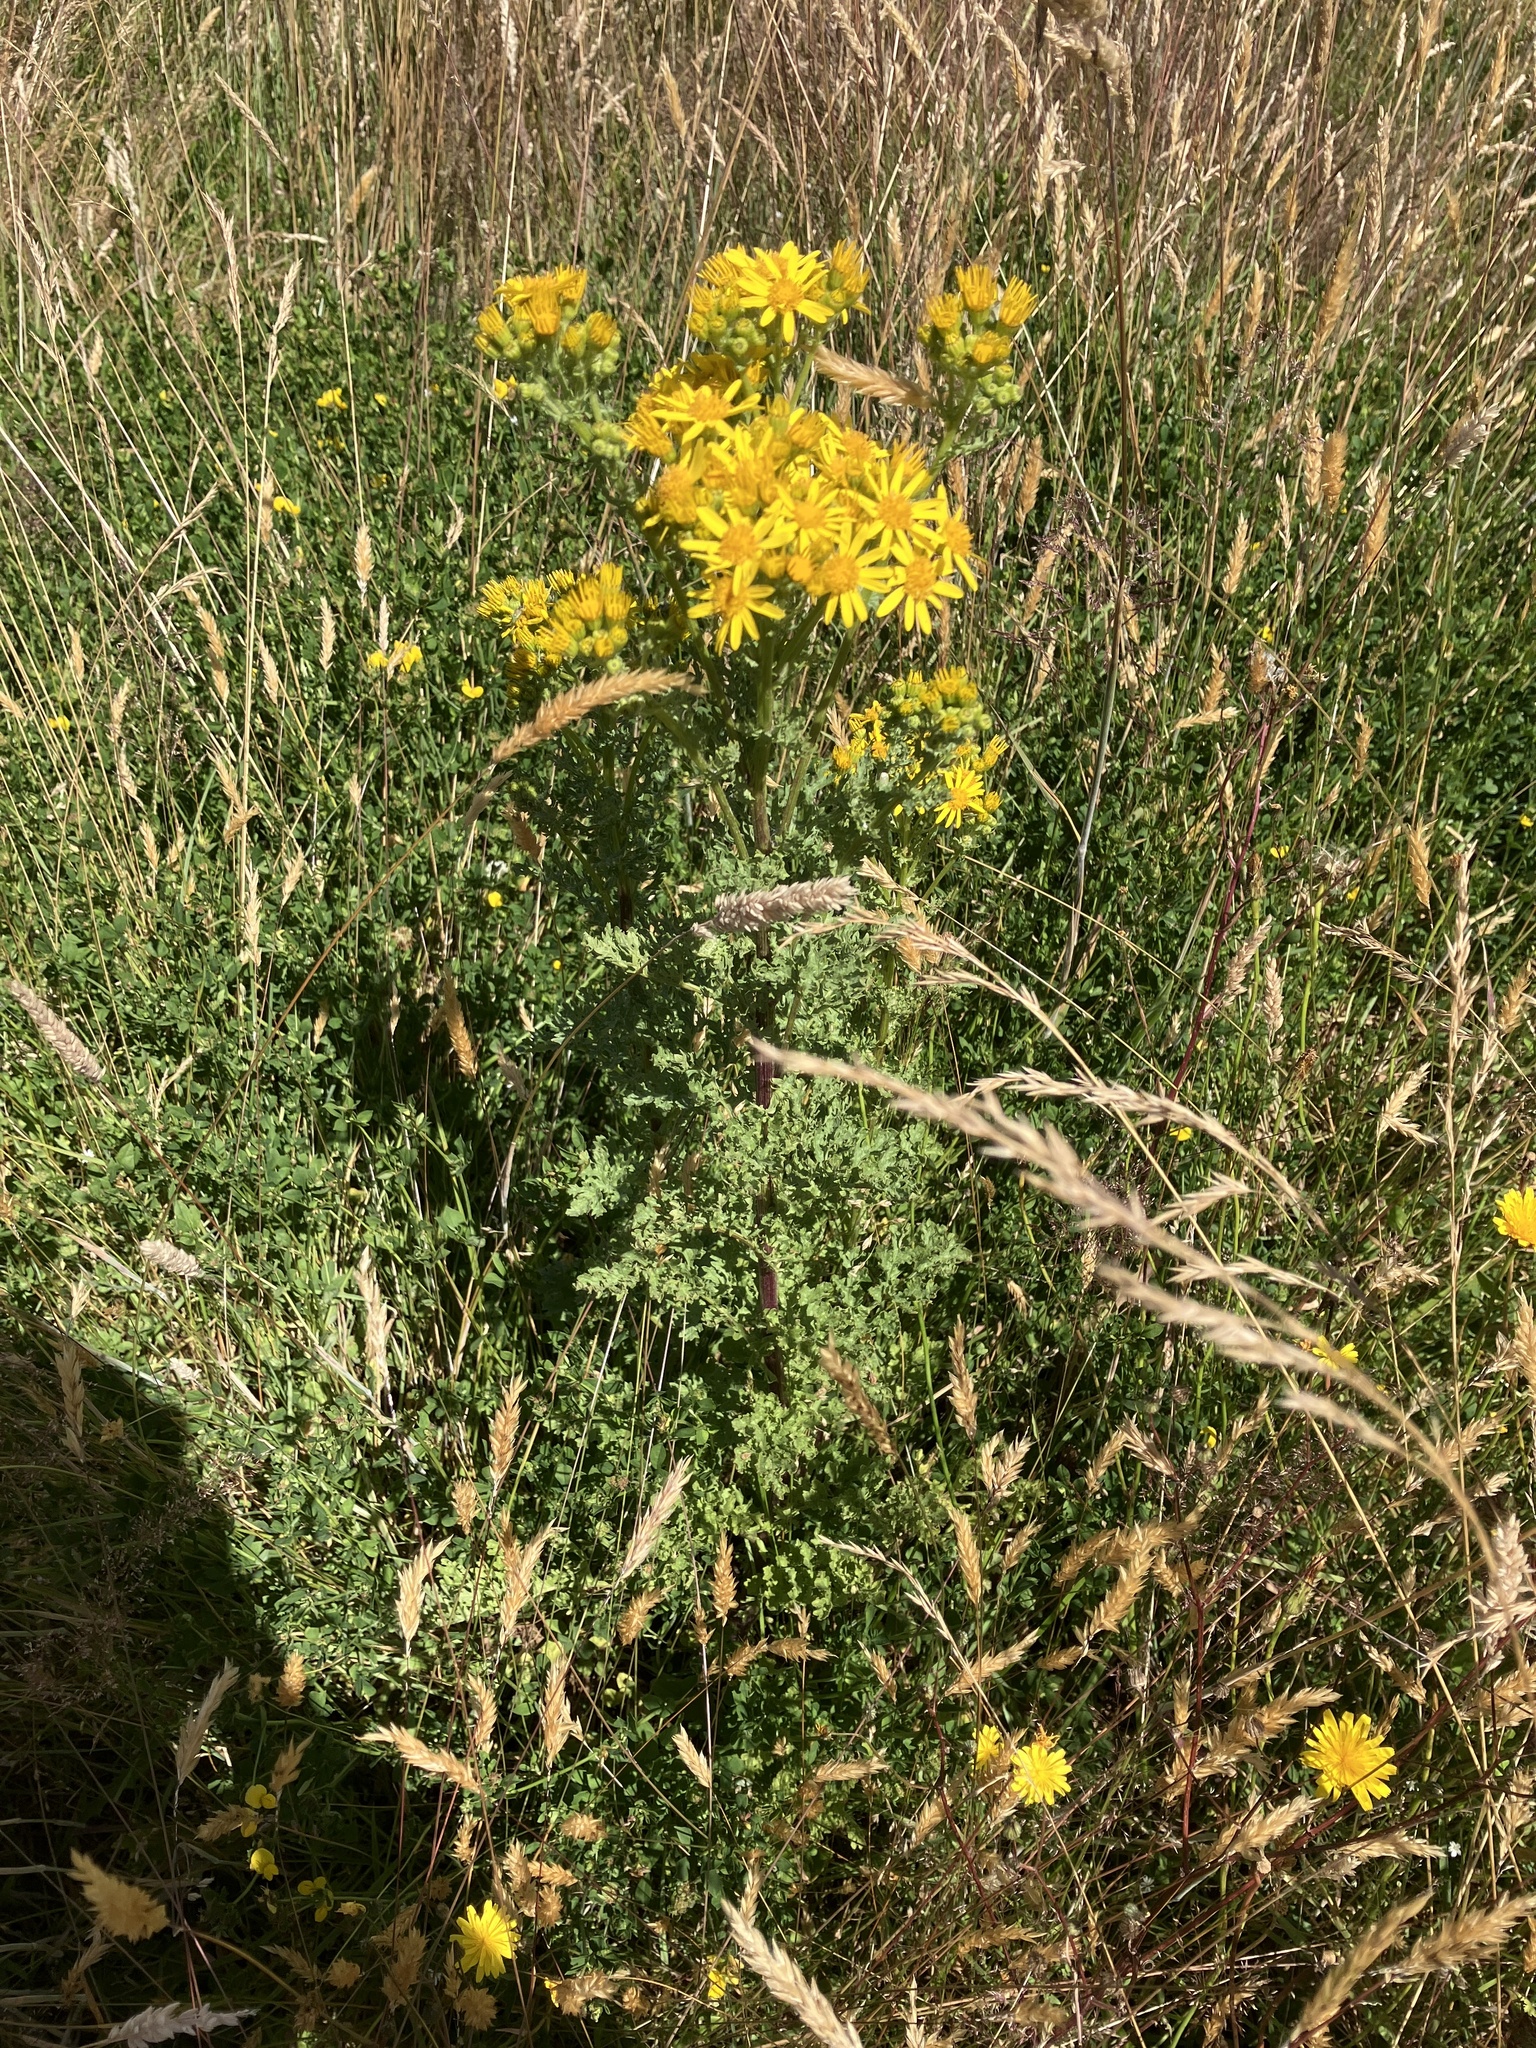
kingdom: Plantae
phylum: Tracheophyta
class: Magnoliopsida
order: Asterales
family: Asteraceae
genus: Jacobaea
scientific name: Jacobaea vulgaris
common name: Stinking willie
